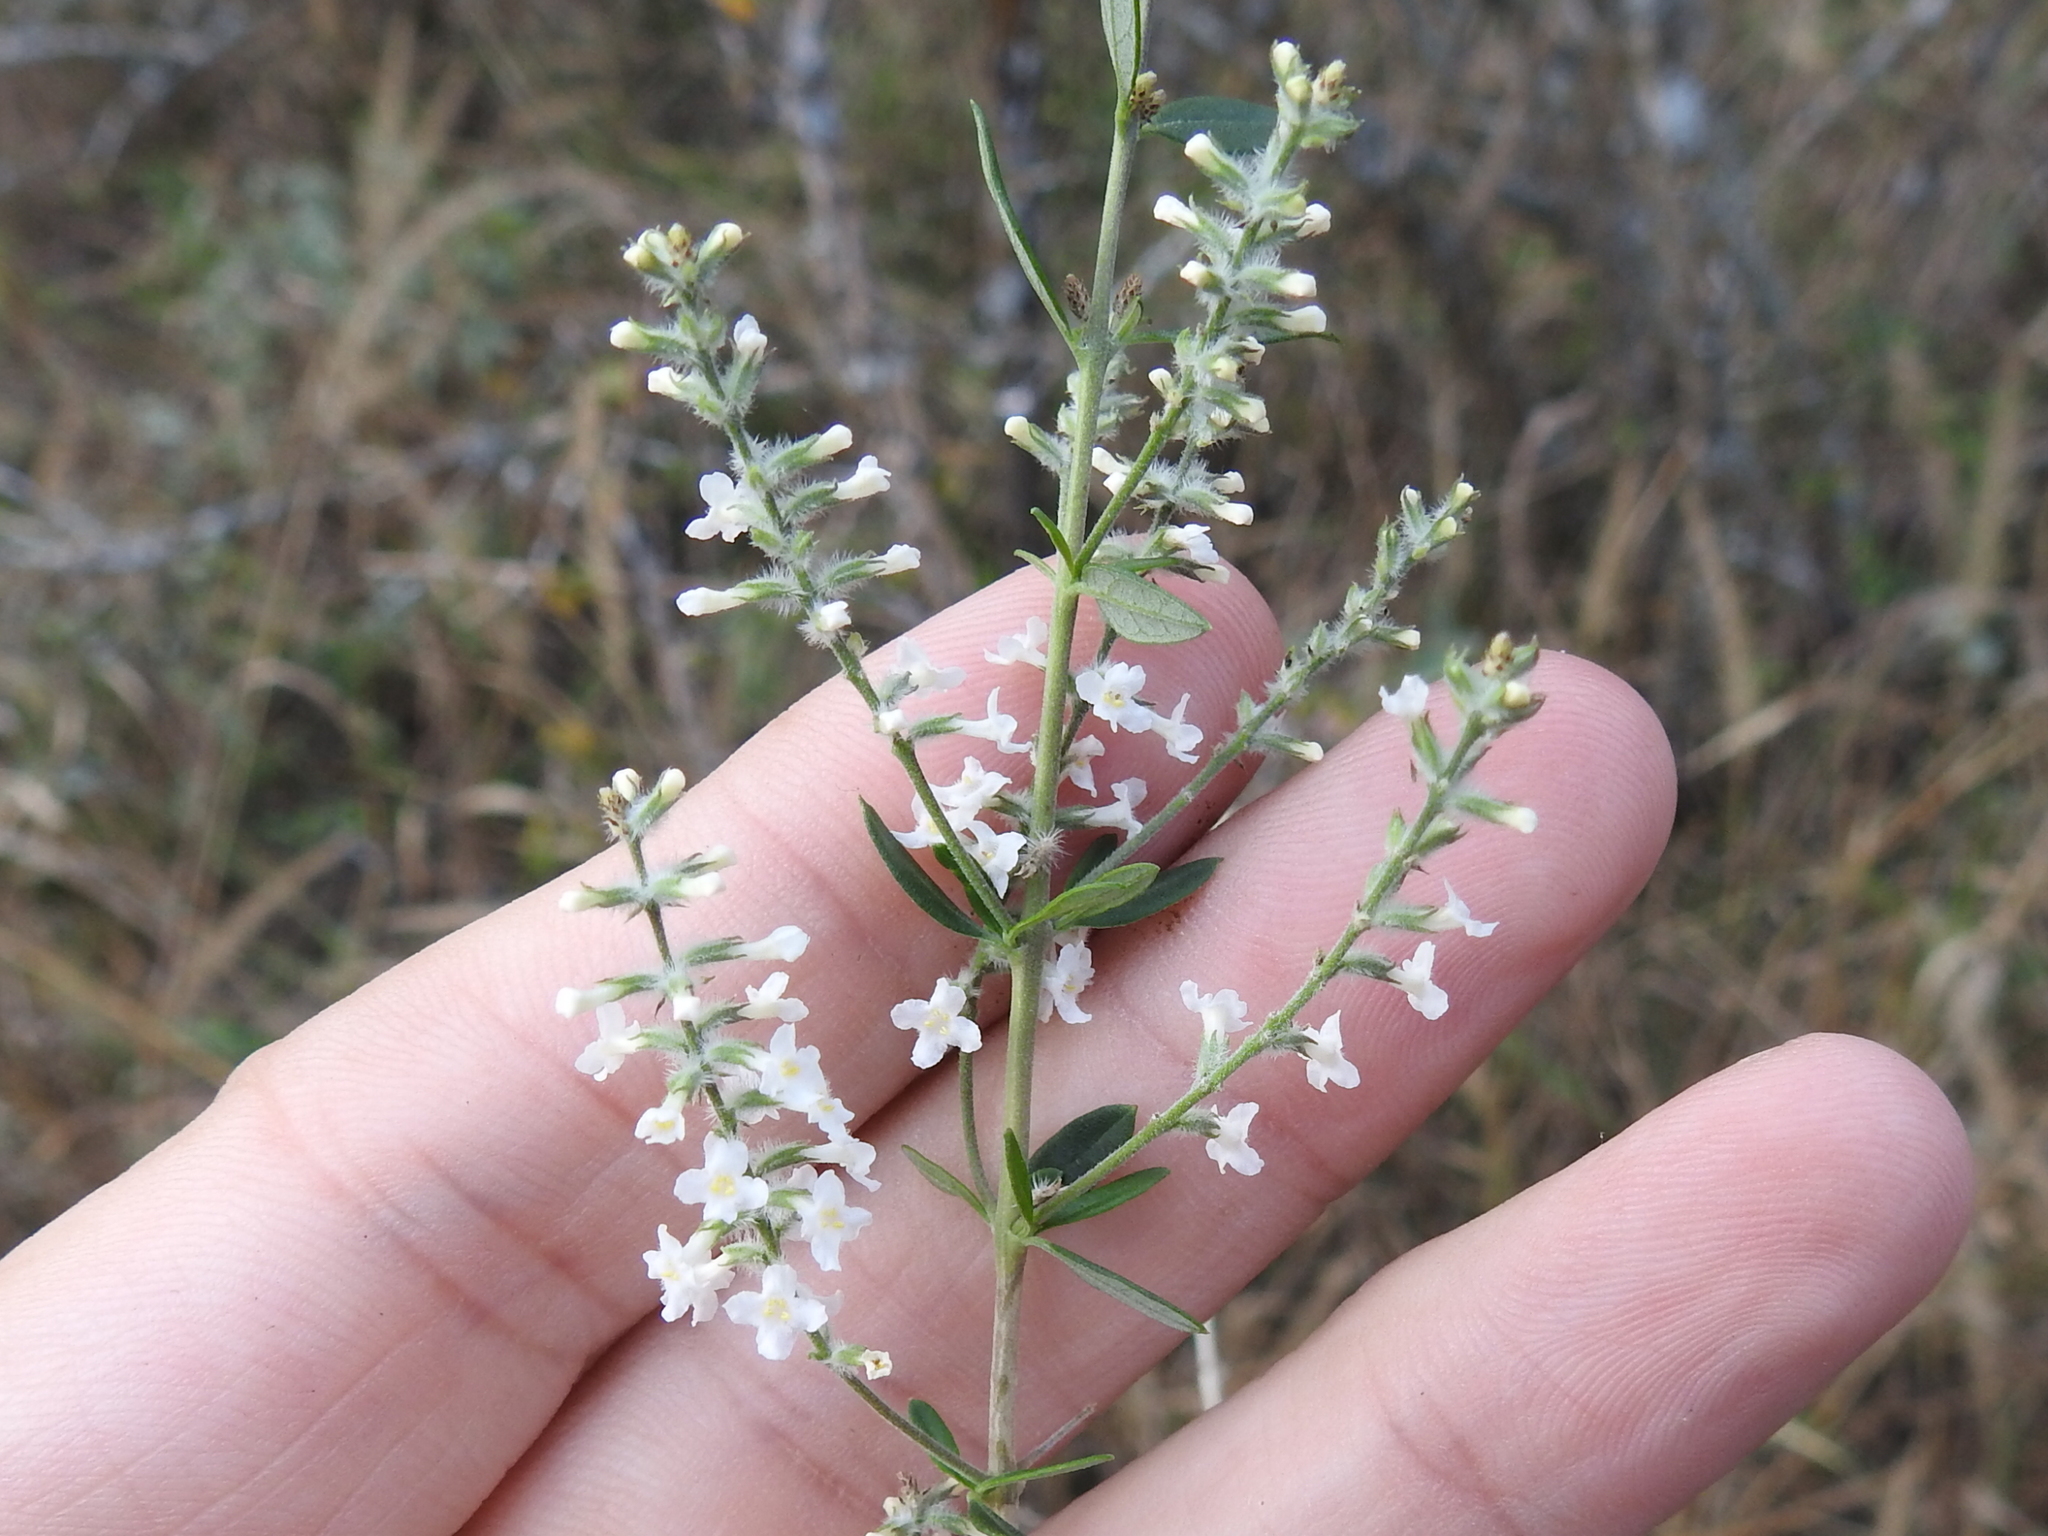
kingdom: Plantae
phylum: Tracheophyta
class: Magnoliopsida
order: Lamiales
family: Verbenaceae
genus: Aloysia
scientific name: Aloysia gratissima
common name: Common bee-brush
